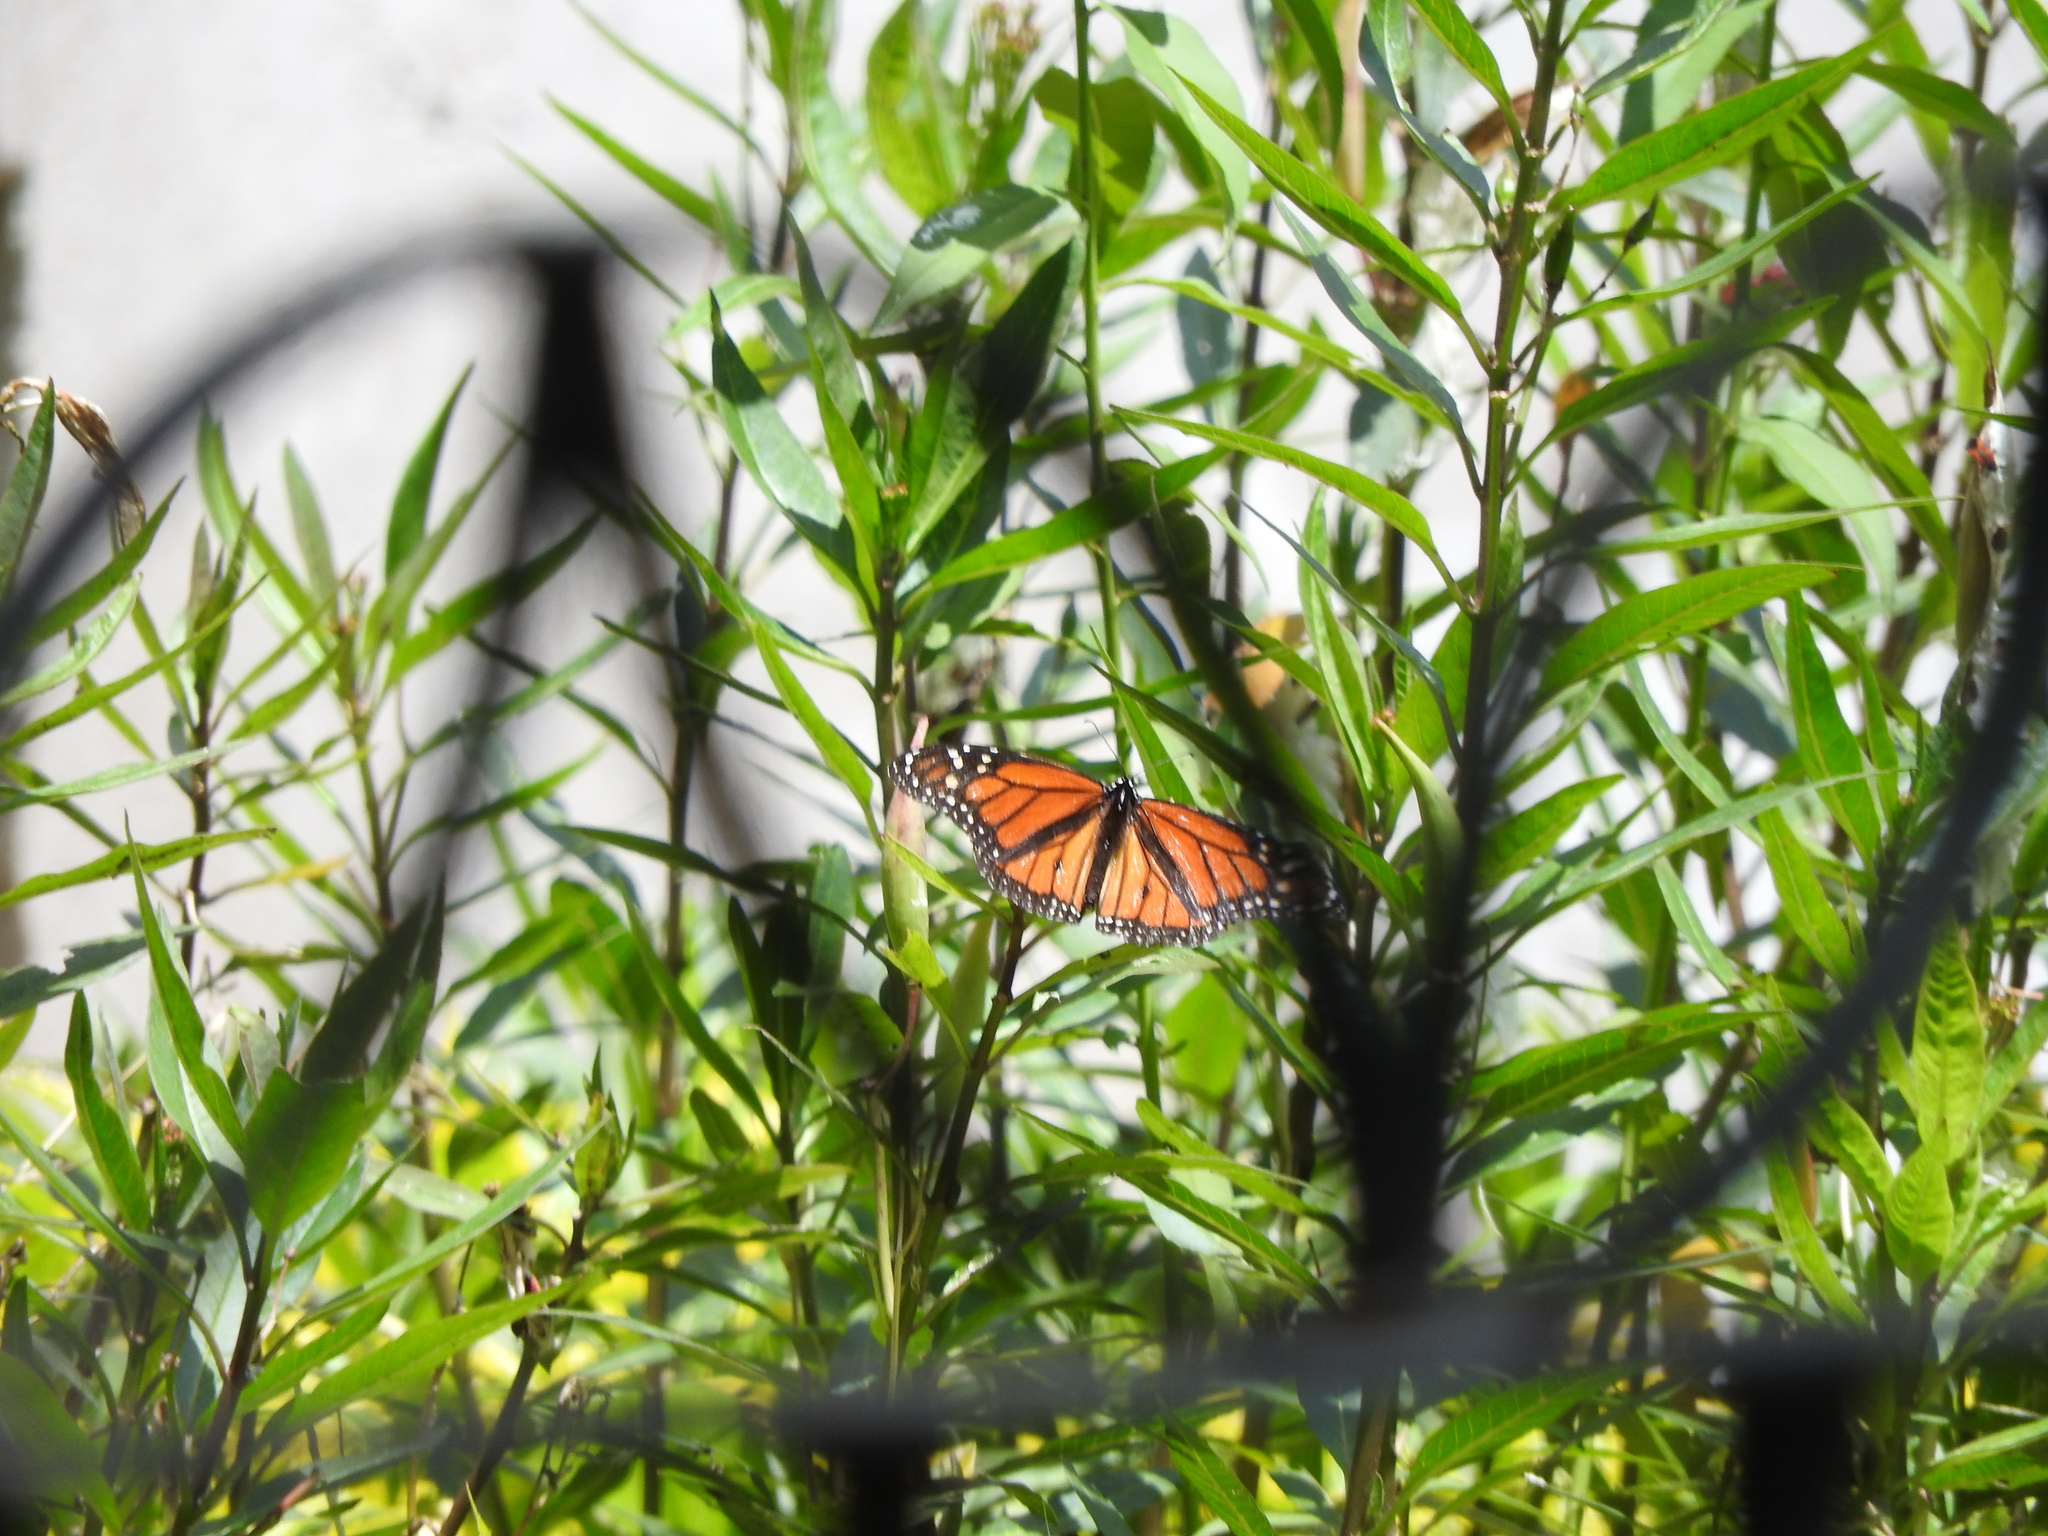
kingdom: Animalia
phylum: Arthropoda
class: Insecta
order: Lepidoptera
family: Nymphalidae
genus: Danaus
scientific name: Danaus plexippus
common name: Monarch
